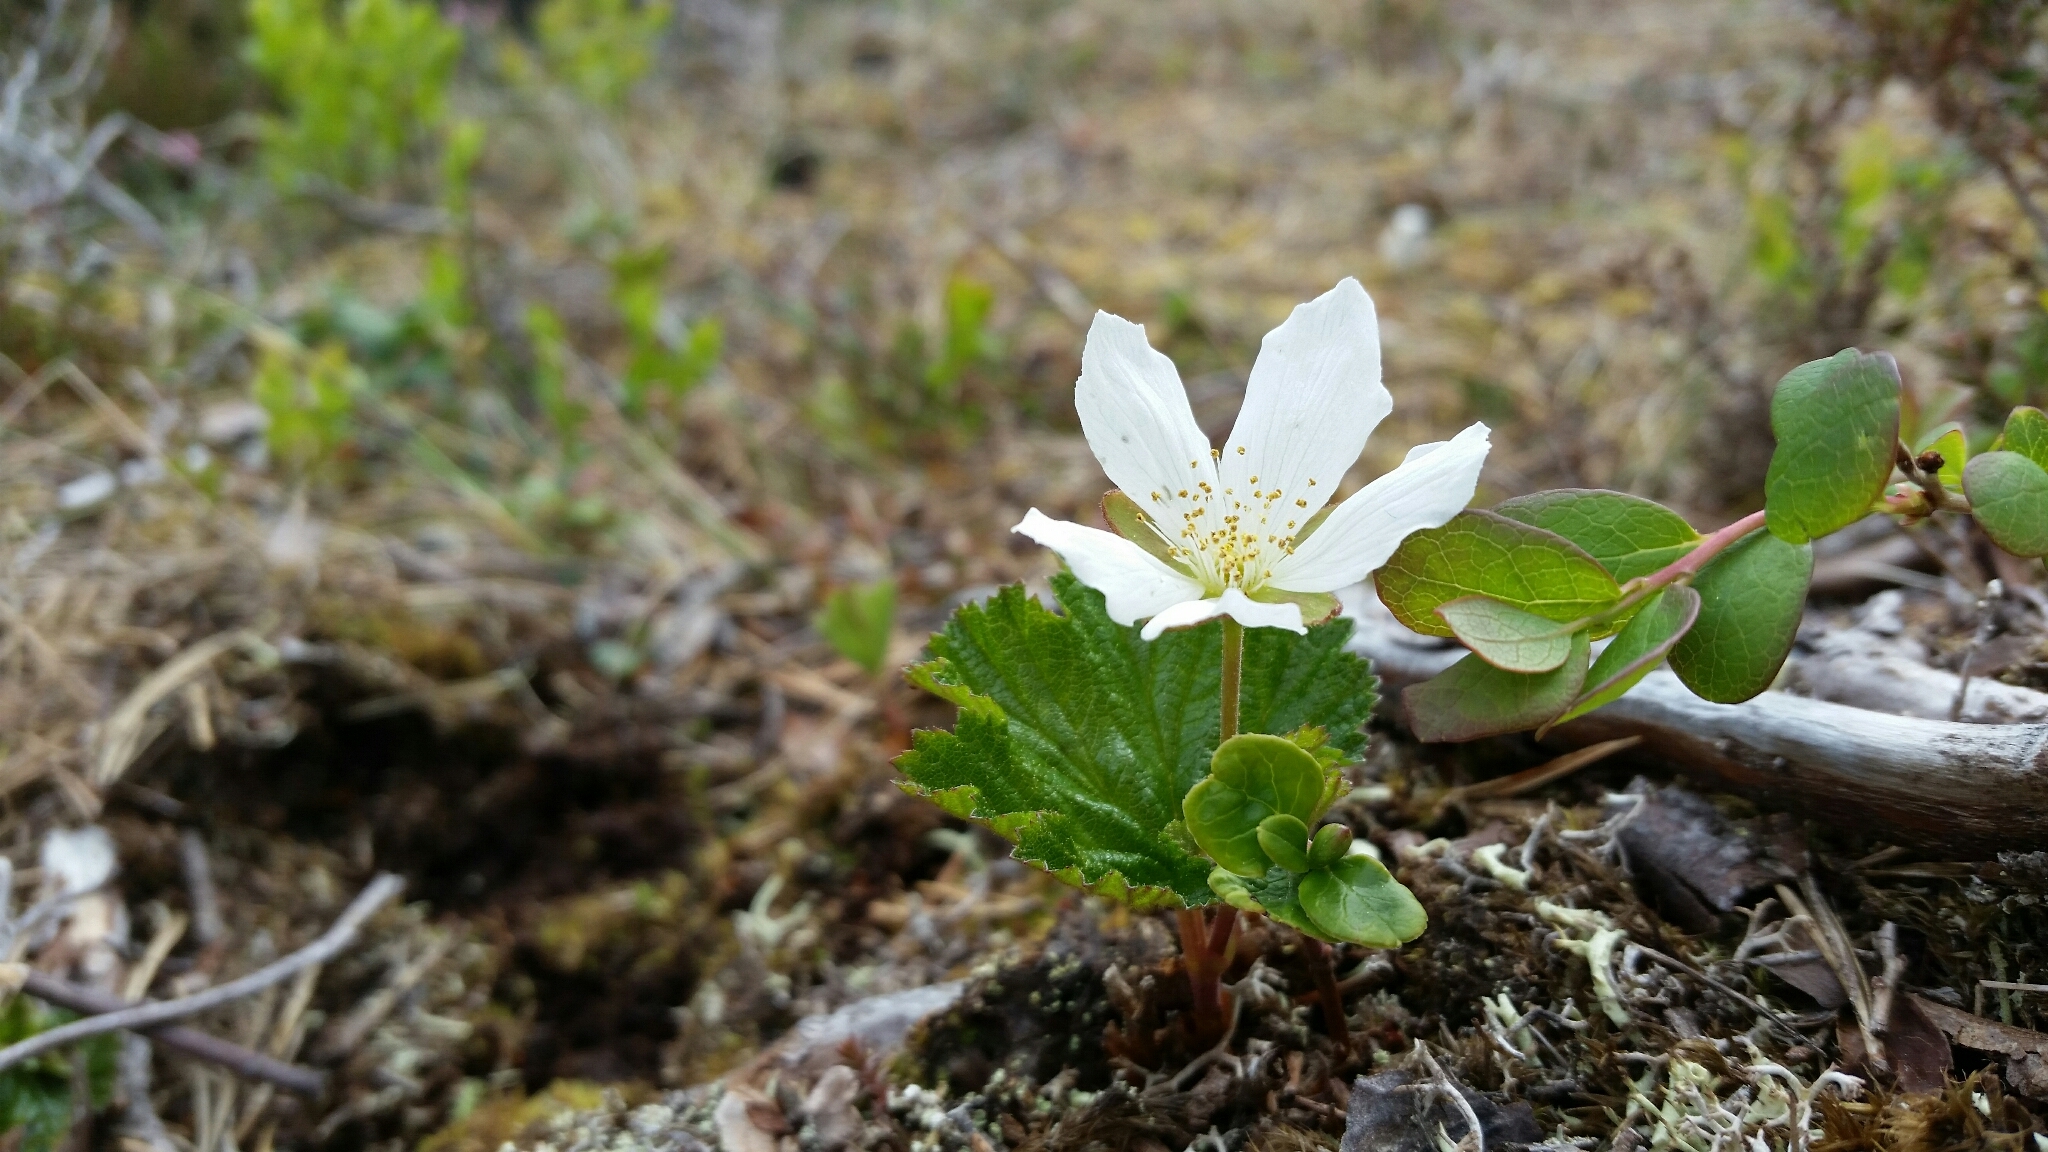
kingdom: Plantae
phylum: Tracheophyta
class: Magnoliopsida
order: Rosales
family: Rosaceae
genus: Rubus
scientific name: Rubus chamaemorus
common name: Cloudberry
